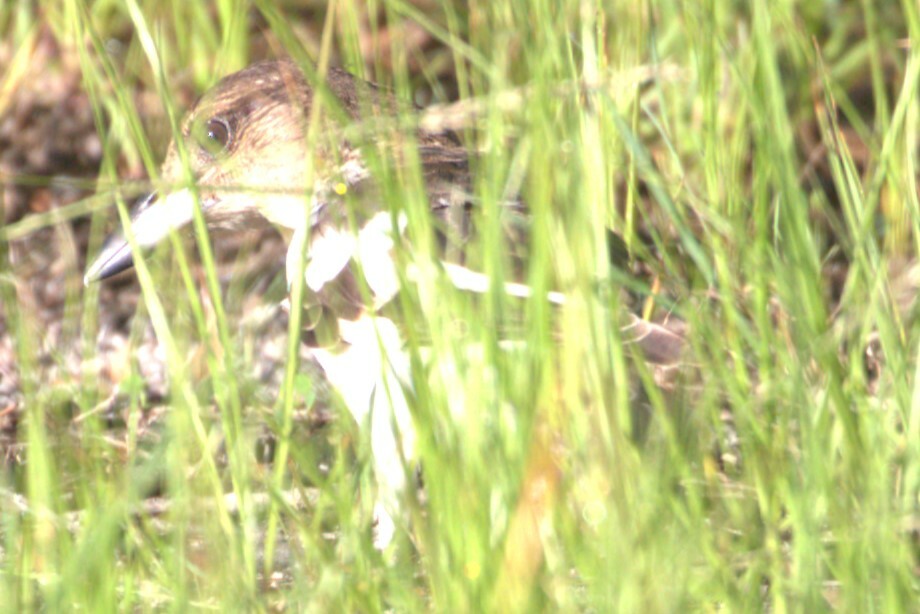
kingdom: Animalia
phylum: Chordata
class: Aves
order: Passeriformes
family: Cracticidae
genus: Cracticus
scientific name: Cracticus nigrogularis
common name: Pied butcherbird
